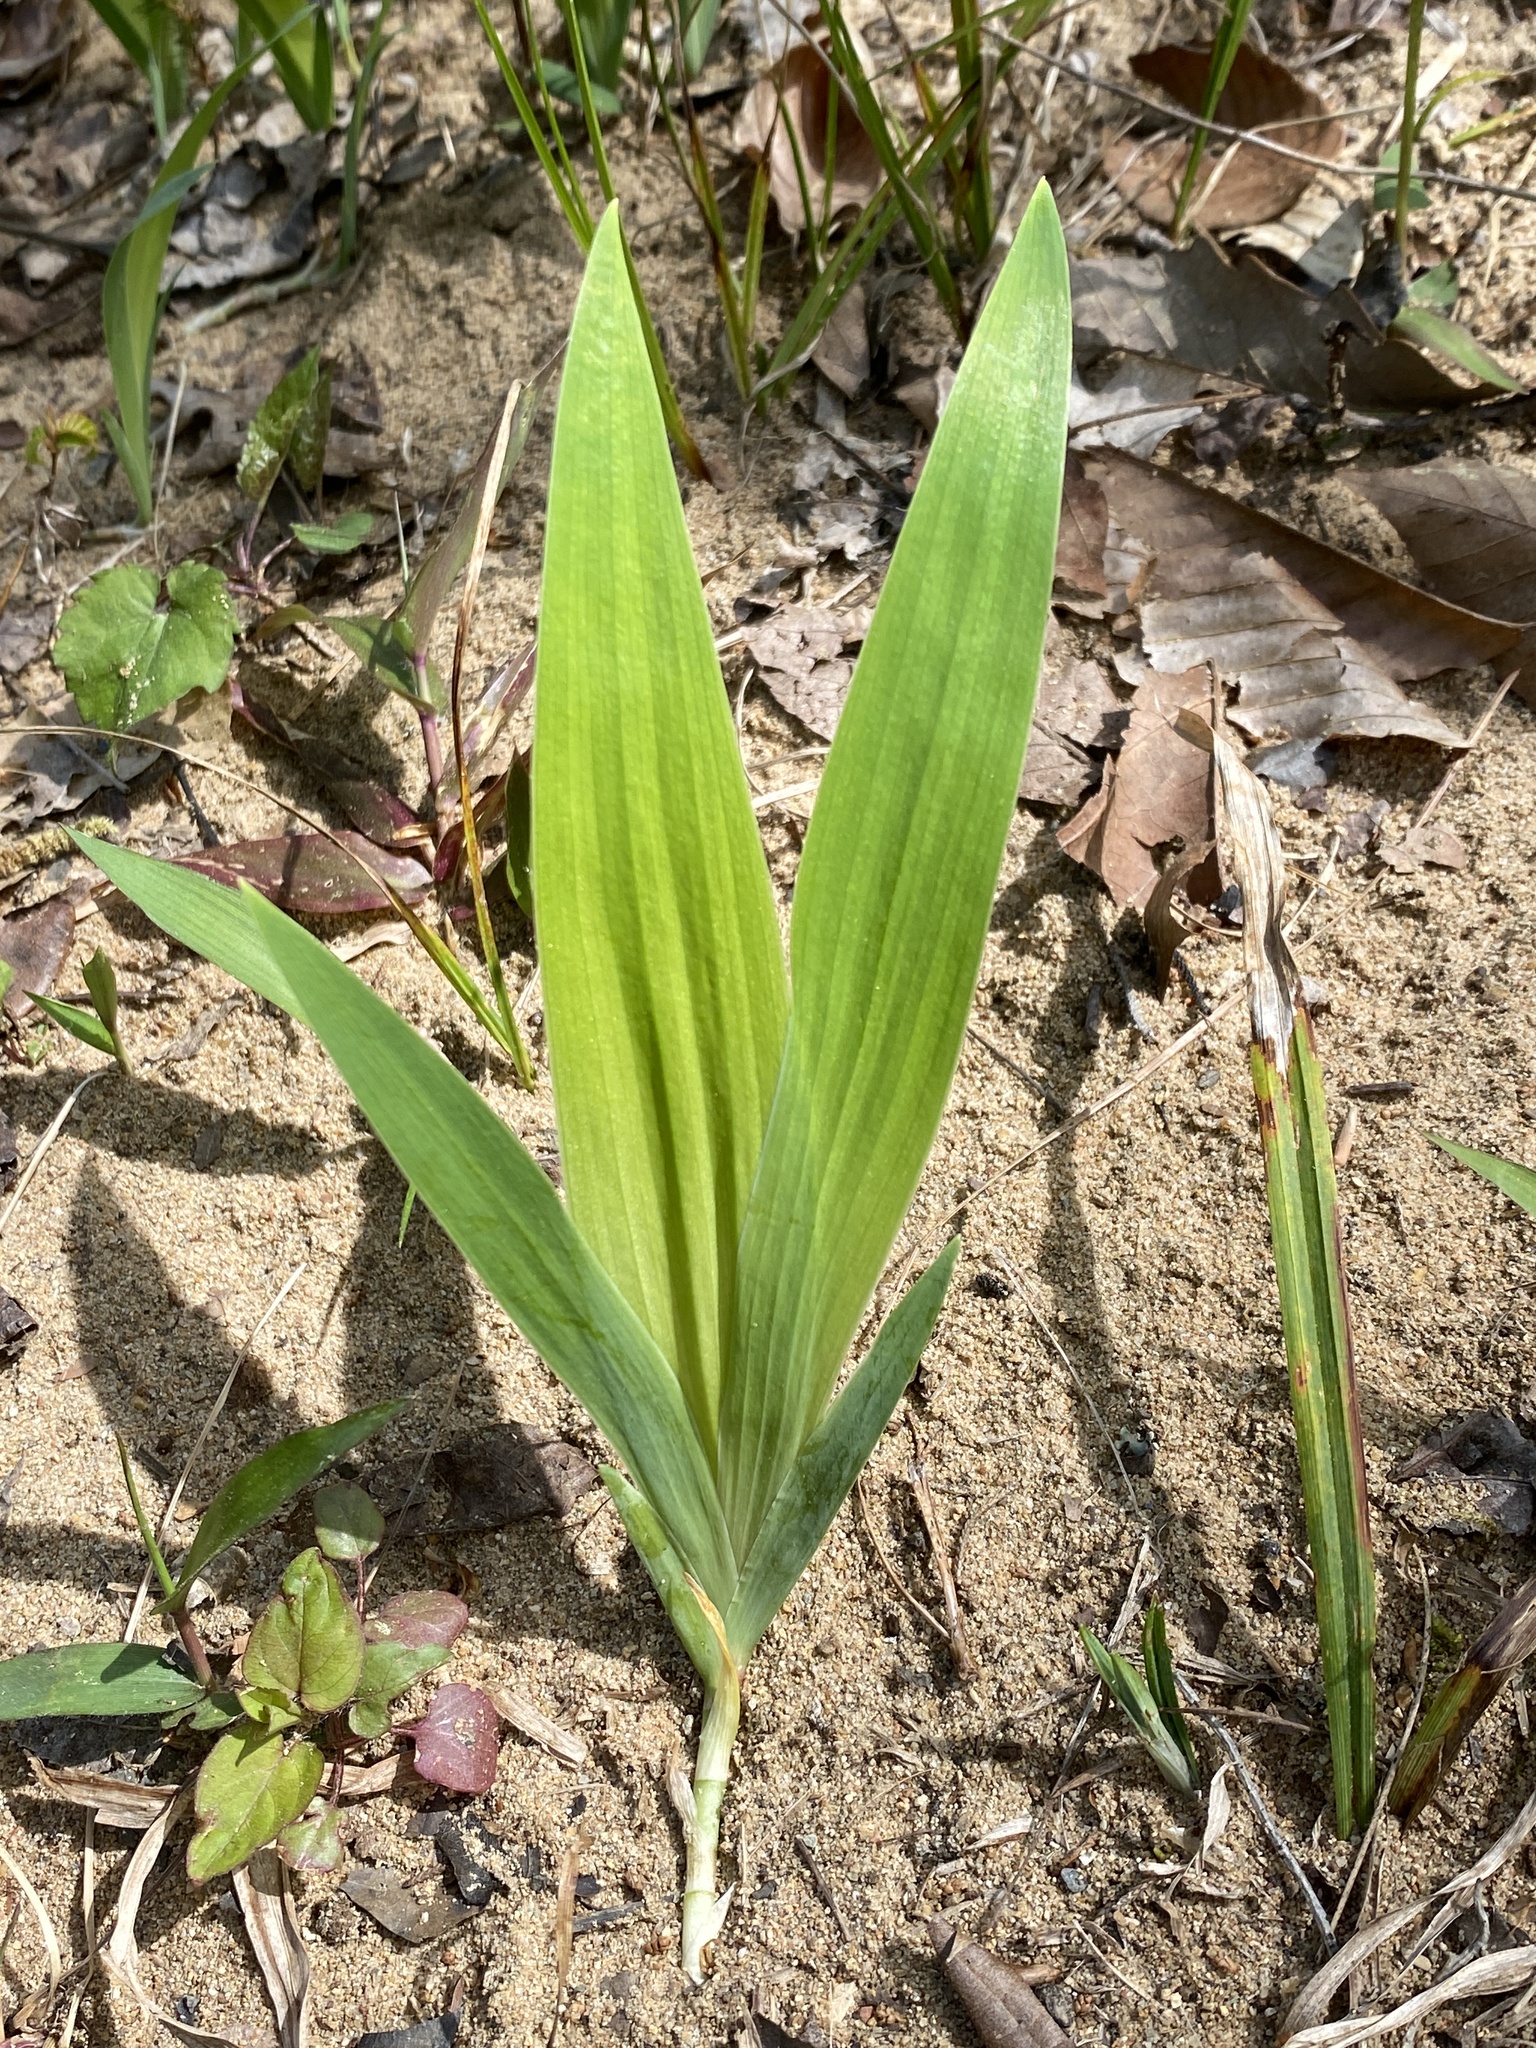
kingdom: Plantae
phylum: Tracheophyta
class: Liliopsida
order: Asparagales
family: Iridaceae
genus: Iris
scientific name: Iris cristata
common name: Crested iris
